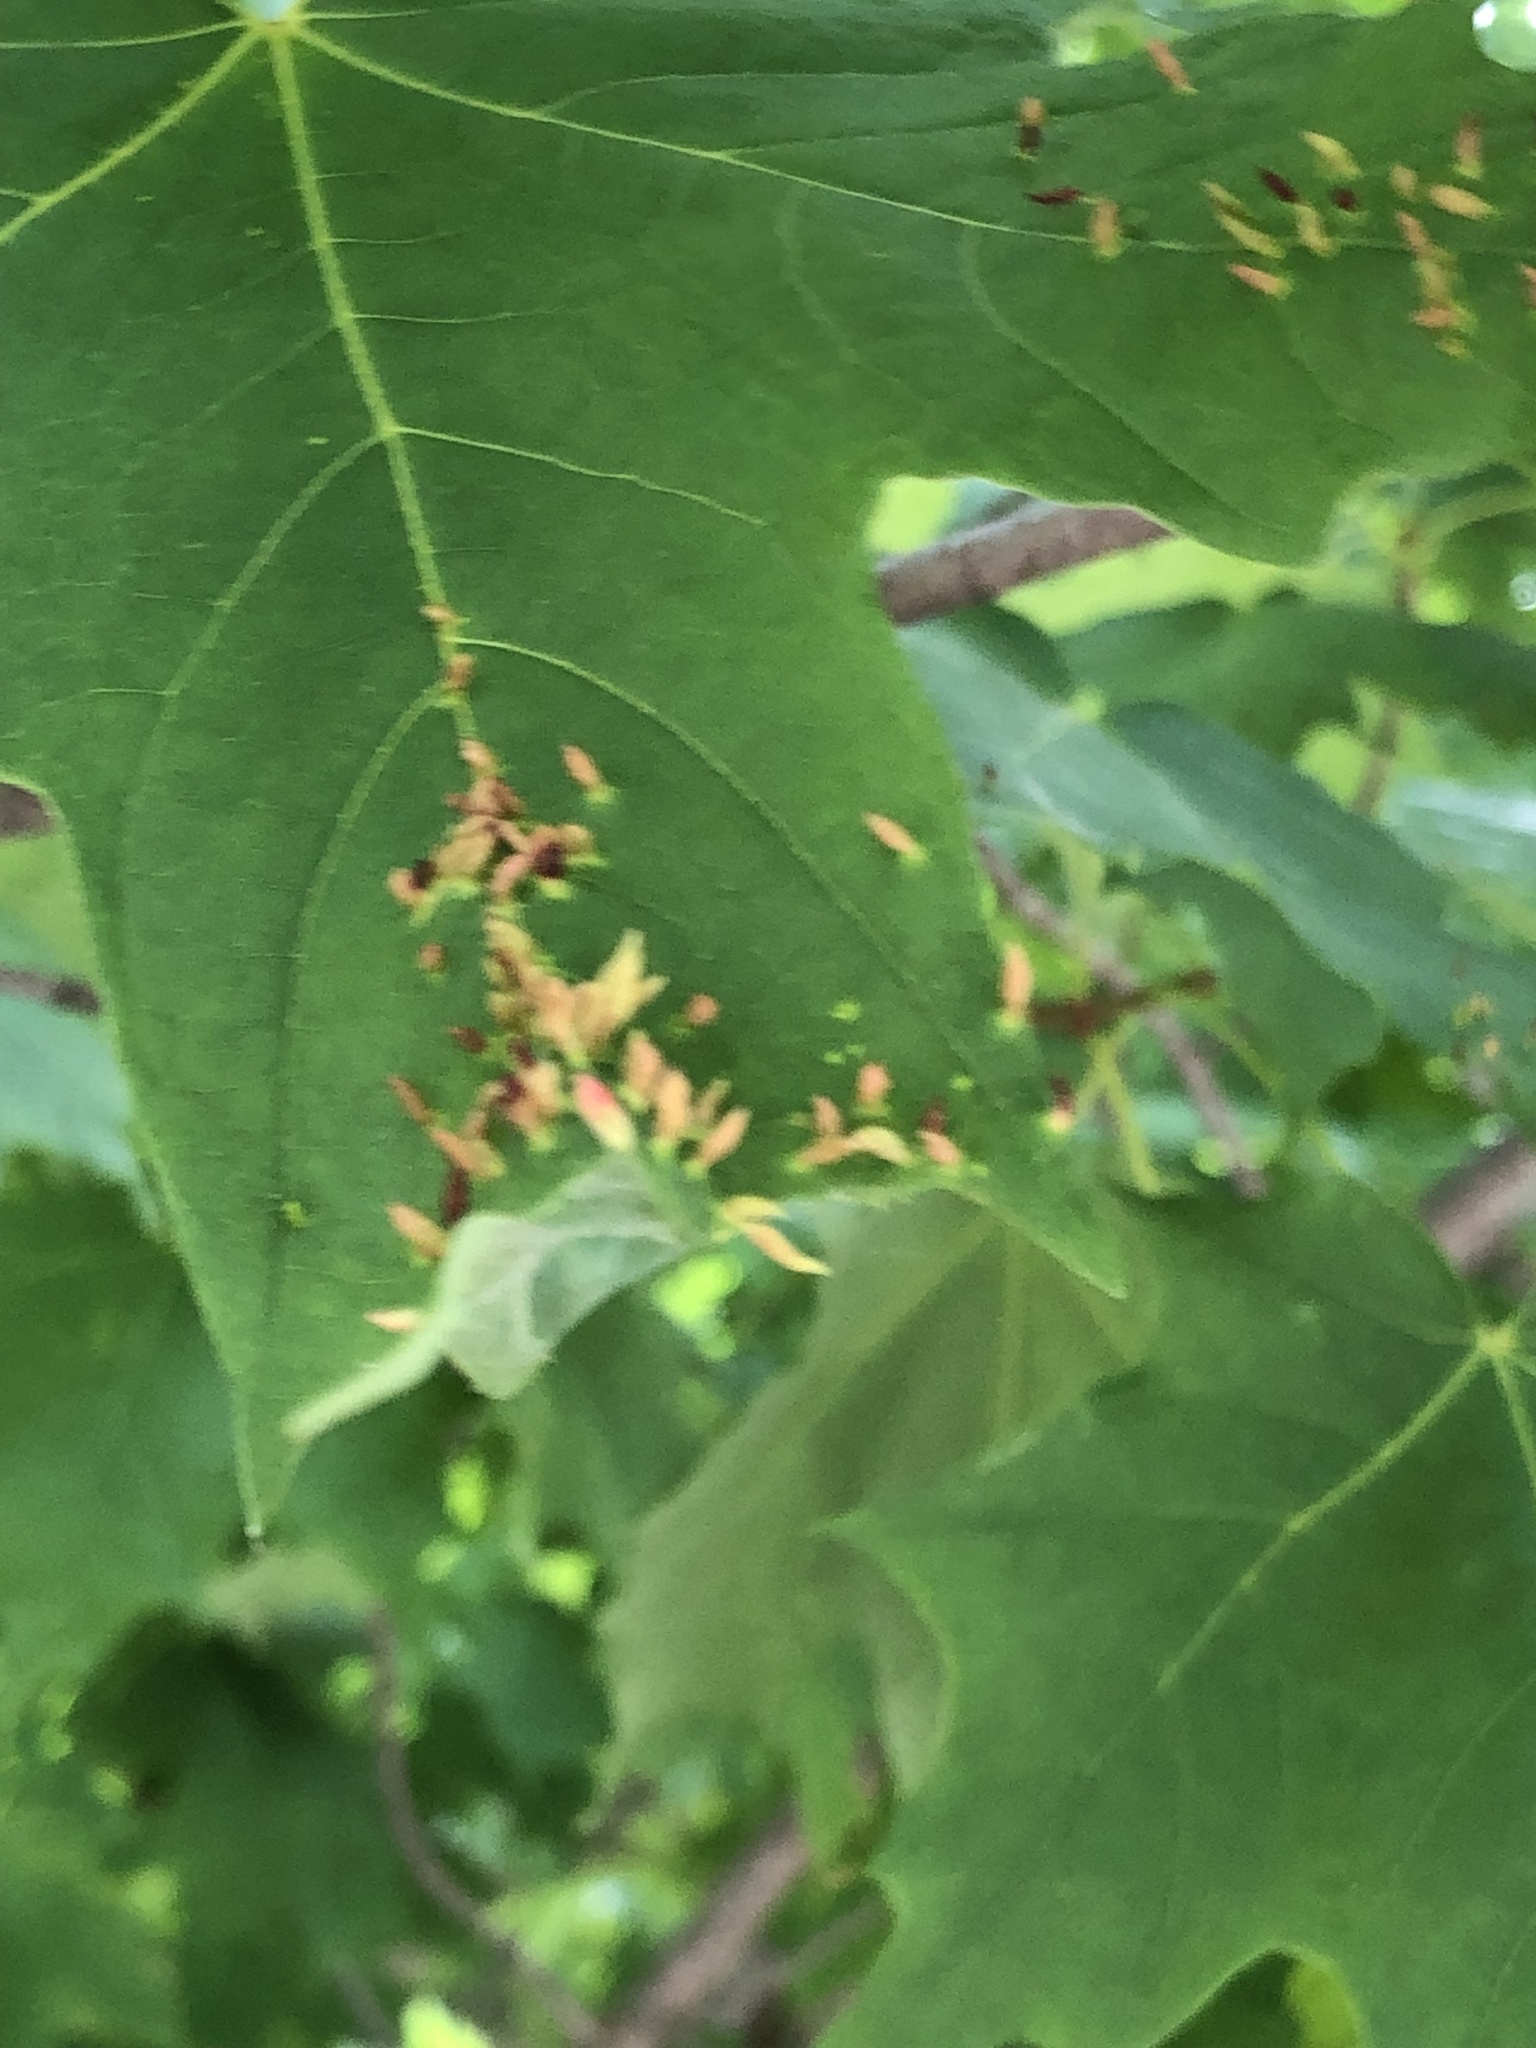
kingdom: Animalia
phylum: Arthropoda
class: Arachnida
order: Trombidiformes
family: Eriophyidae
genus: Vasates
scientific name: Vasates aceriscrumena
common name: Maple spindle gall mite
